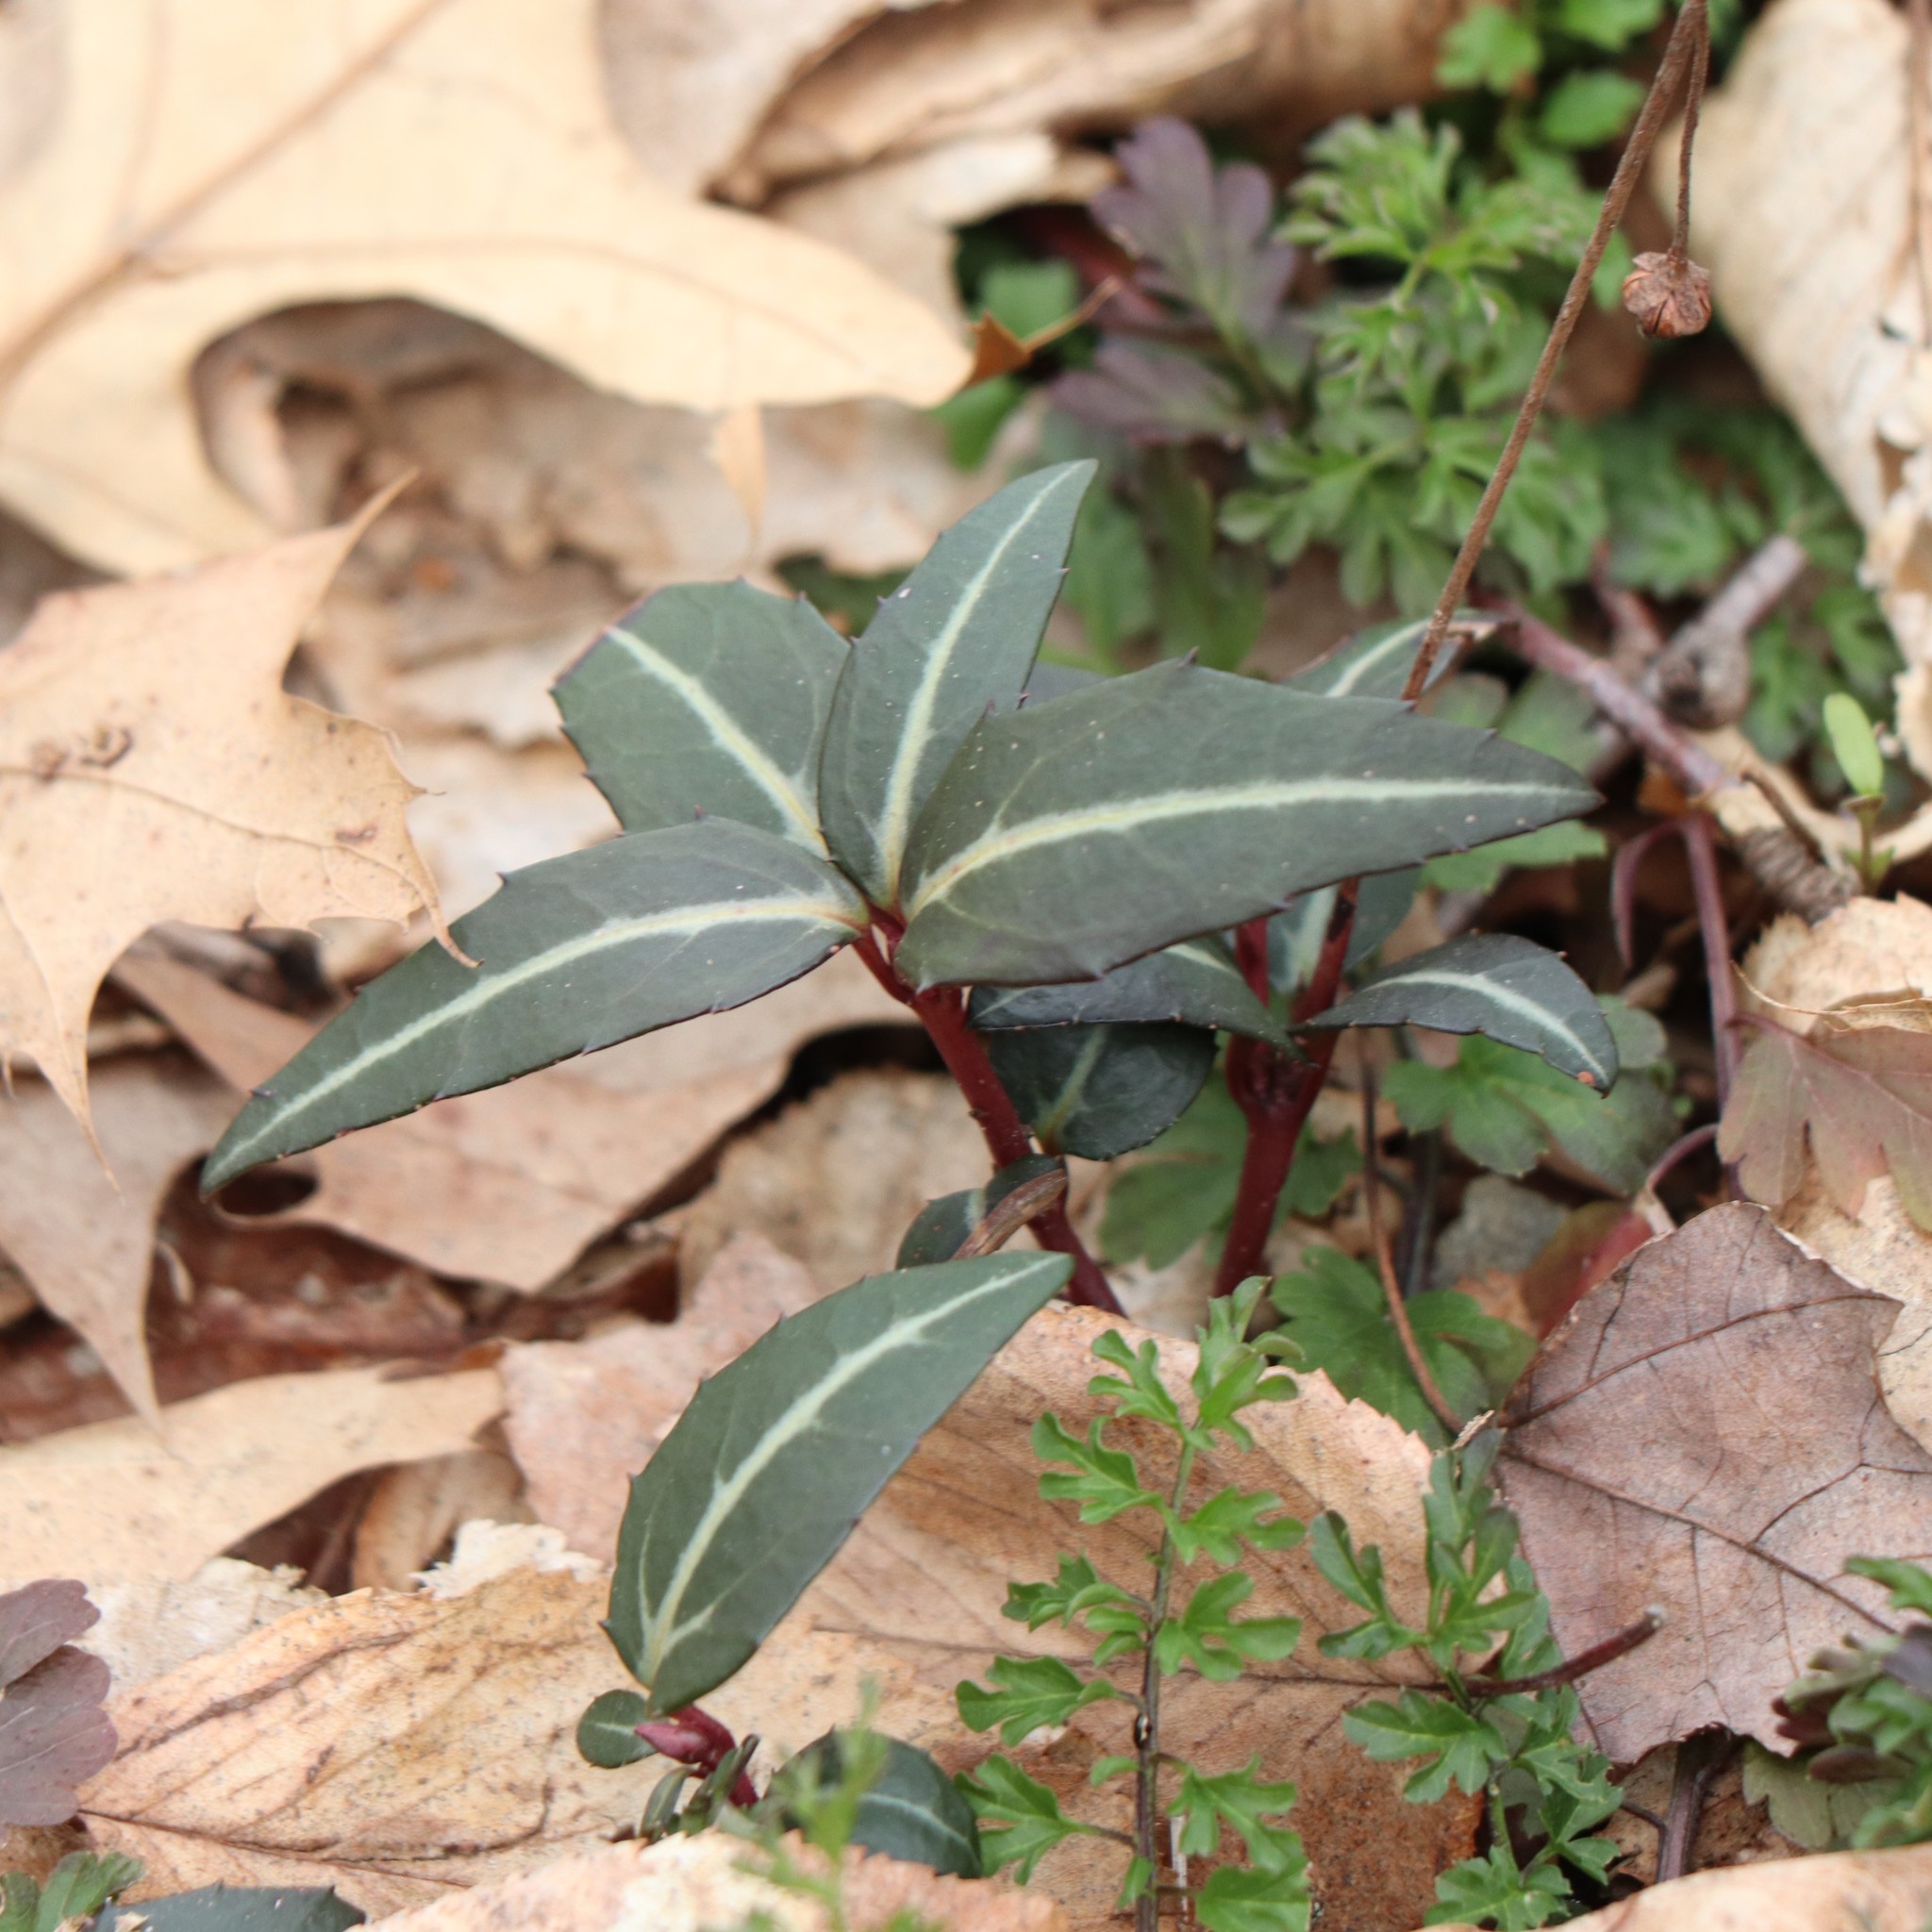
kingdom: Plantae
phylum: Tracheophyta
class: Magnoliopsida
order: Ericales
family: Ericaceae
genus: Chimaphila
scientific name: Chimaphila maculata
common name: Spotted pipsissewa
